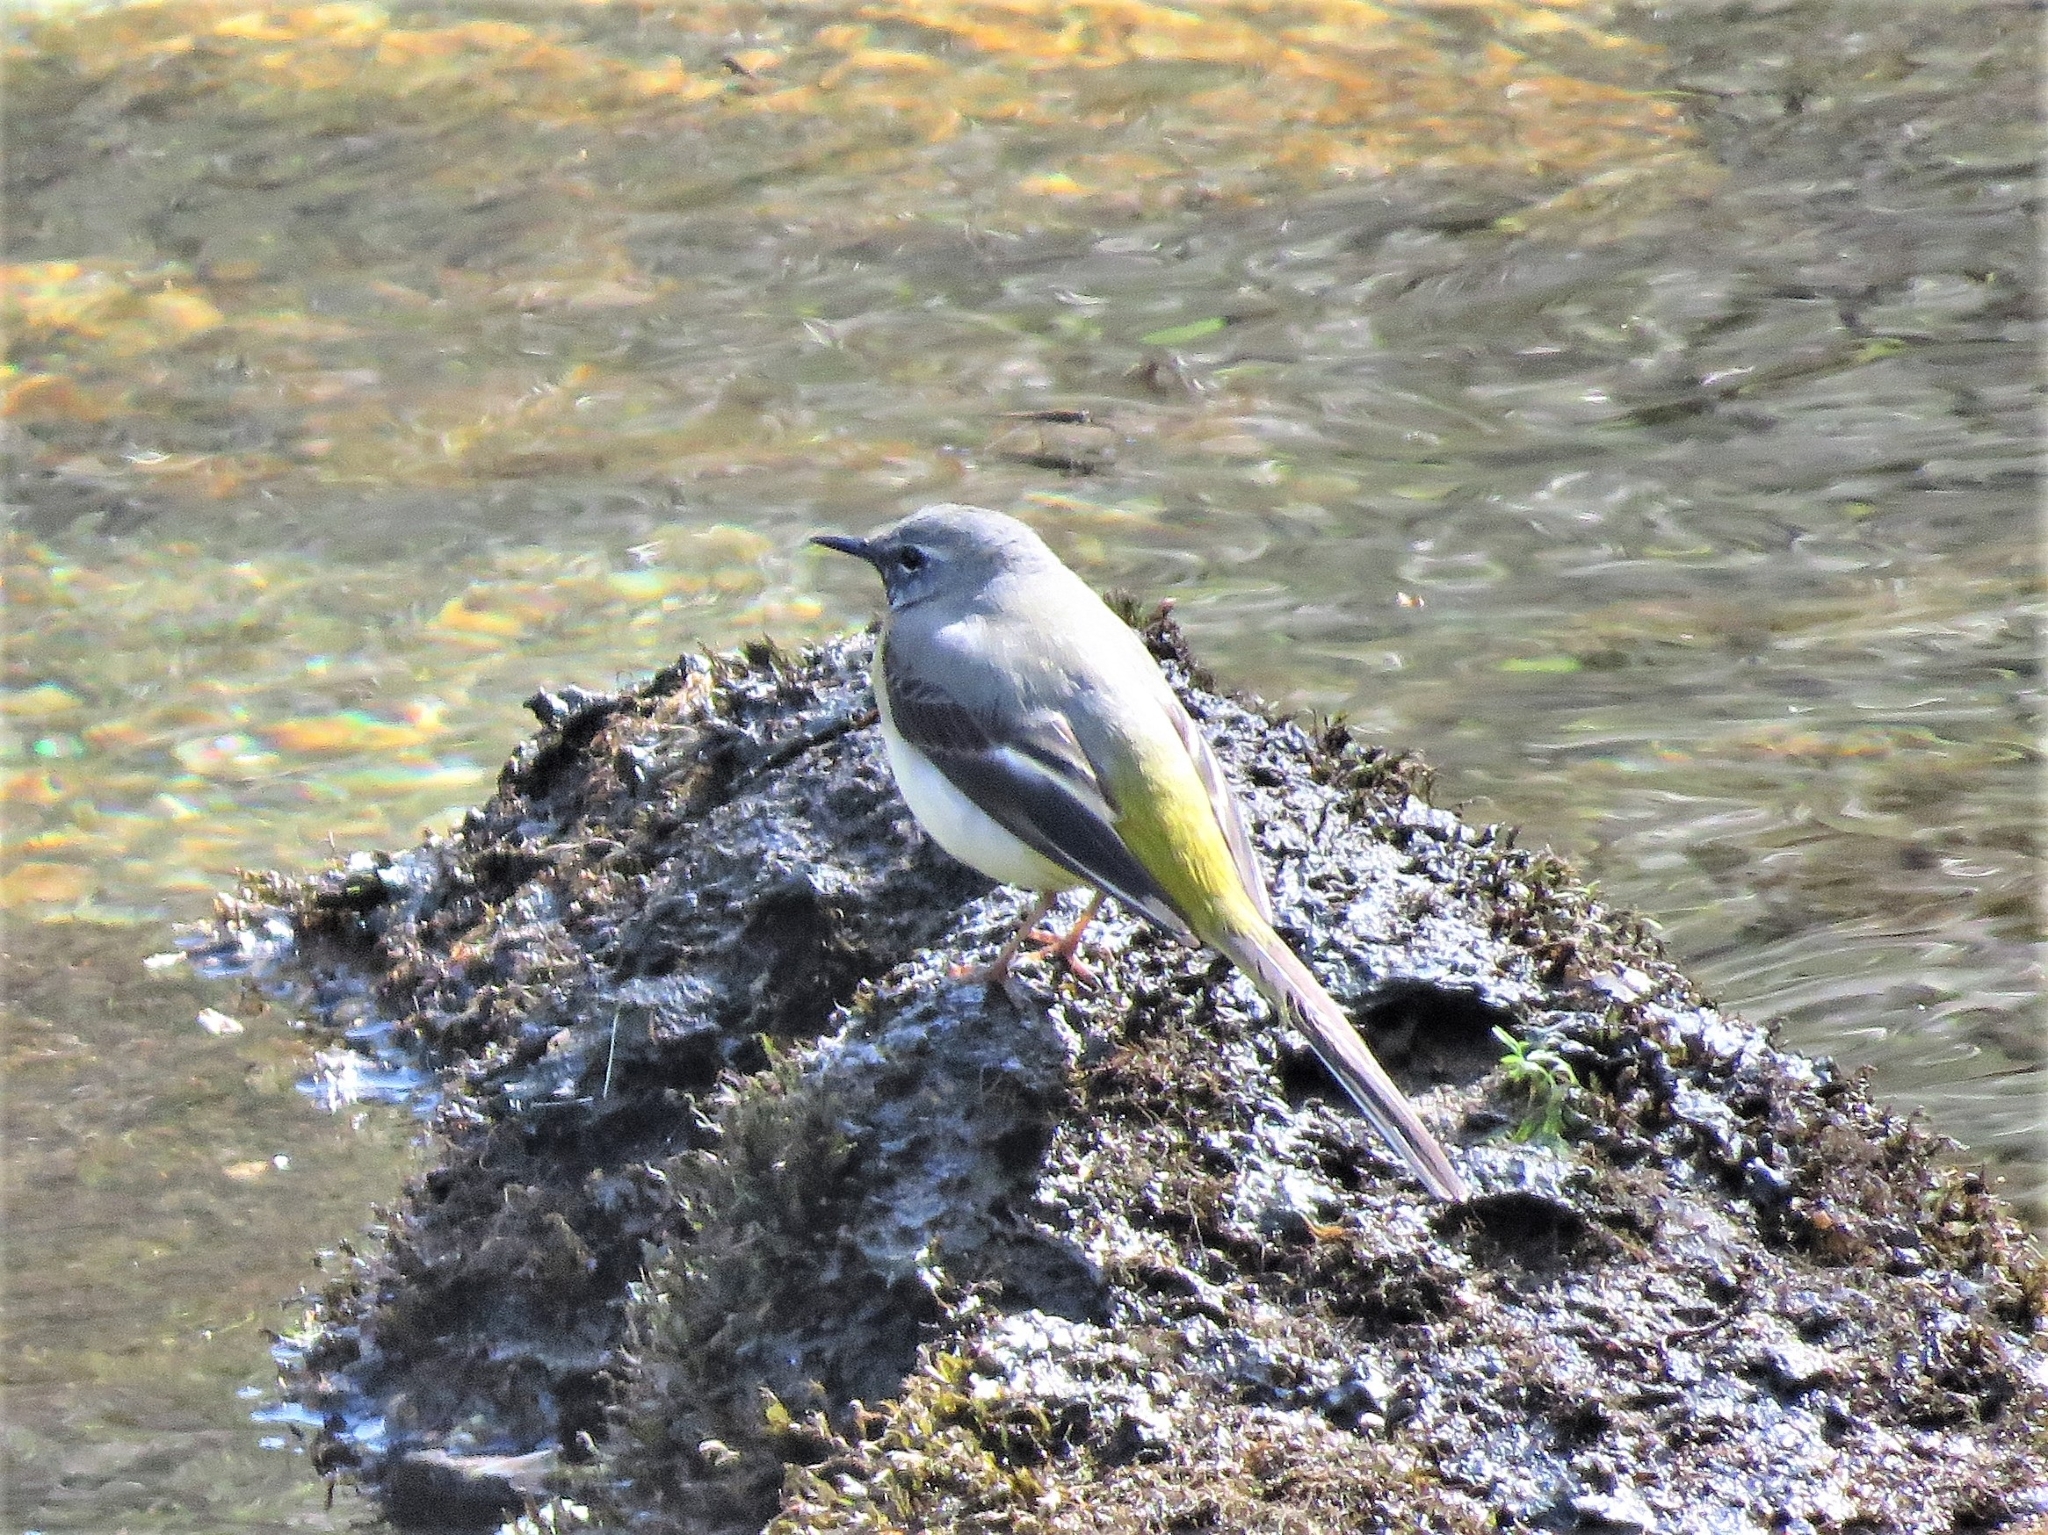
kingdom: Animalia
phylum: Chordata
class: Aves
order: Passeriformes
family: Motacillidae
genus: Motacilla
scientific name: Motacilla cinerea
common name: Grey wagtail
